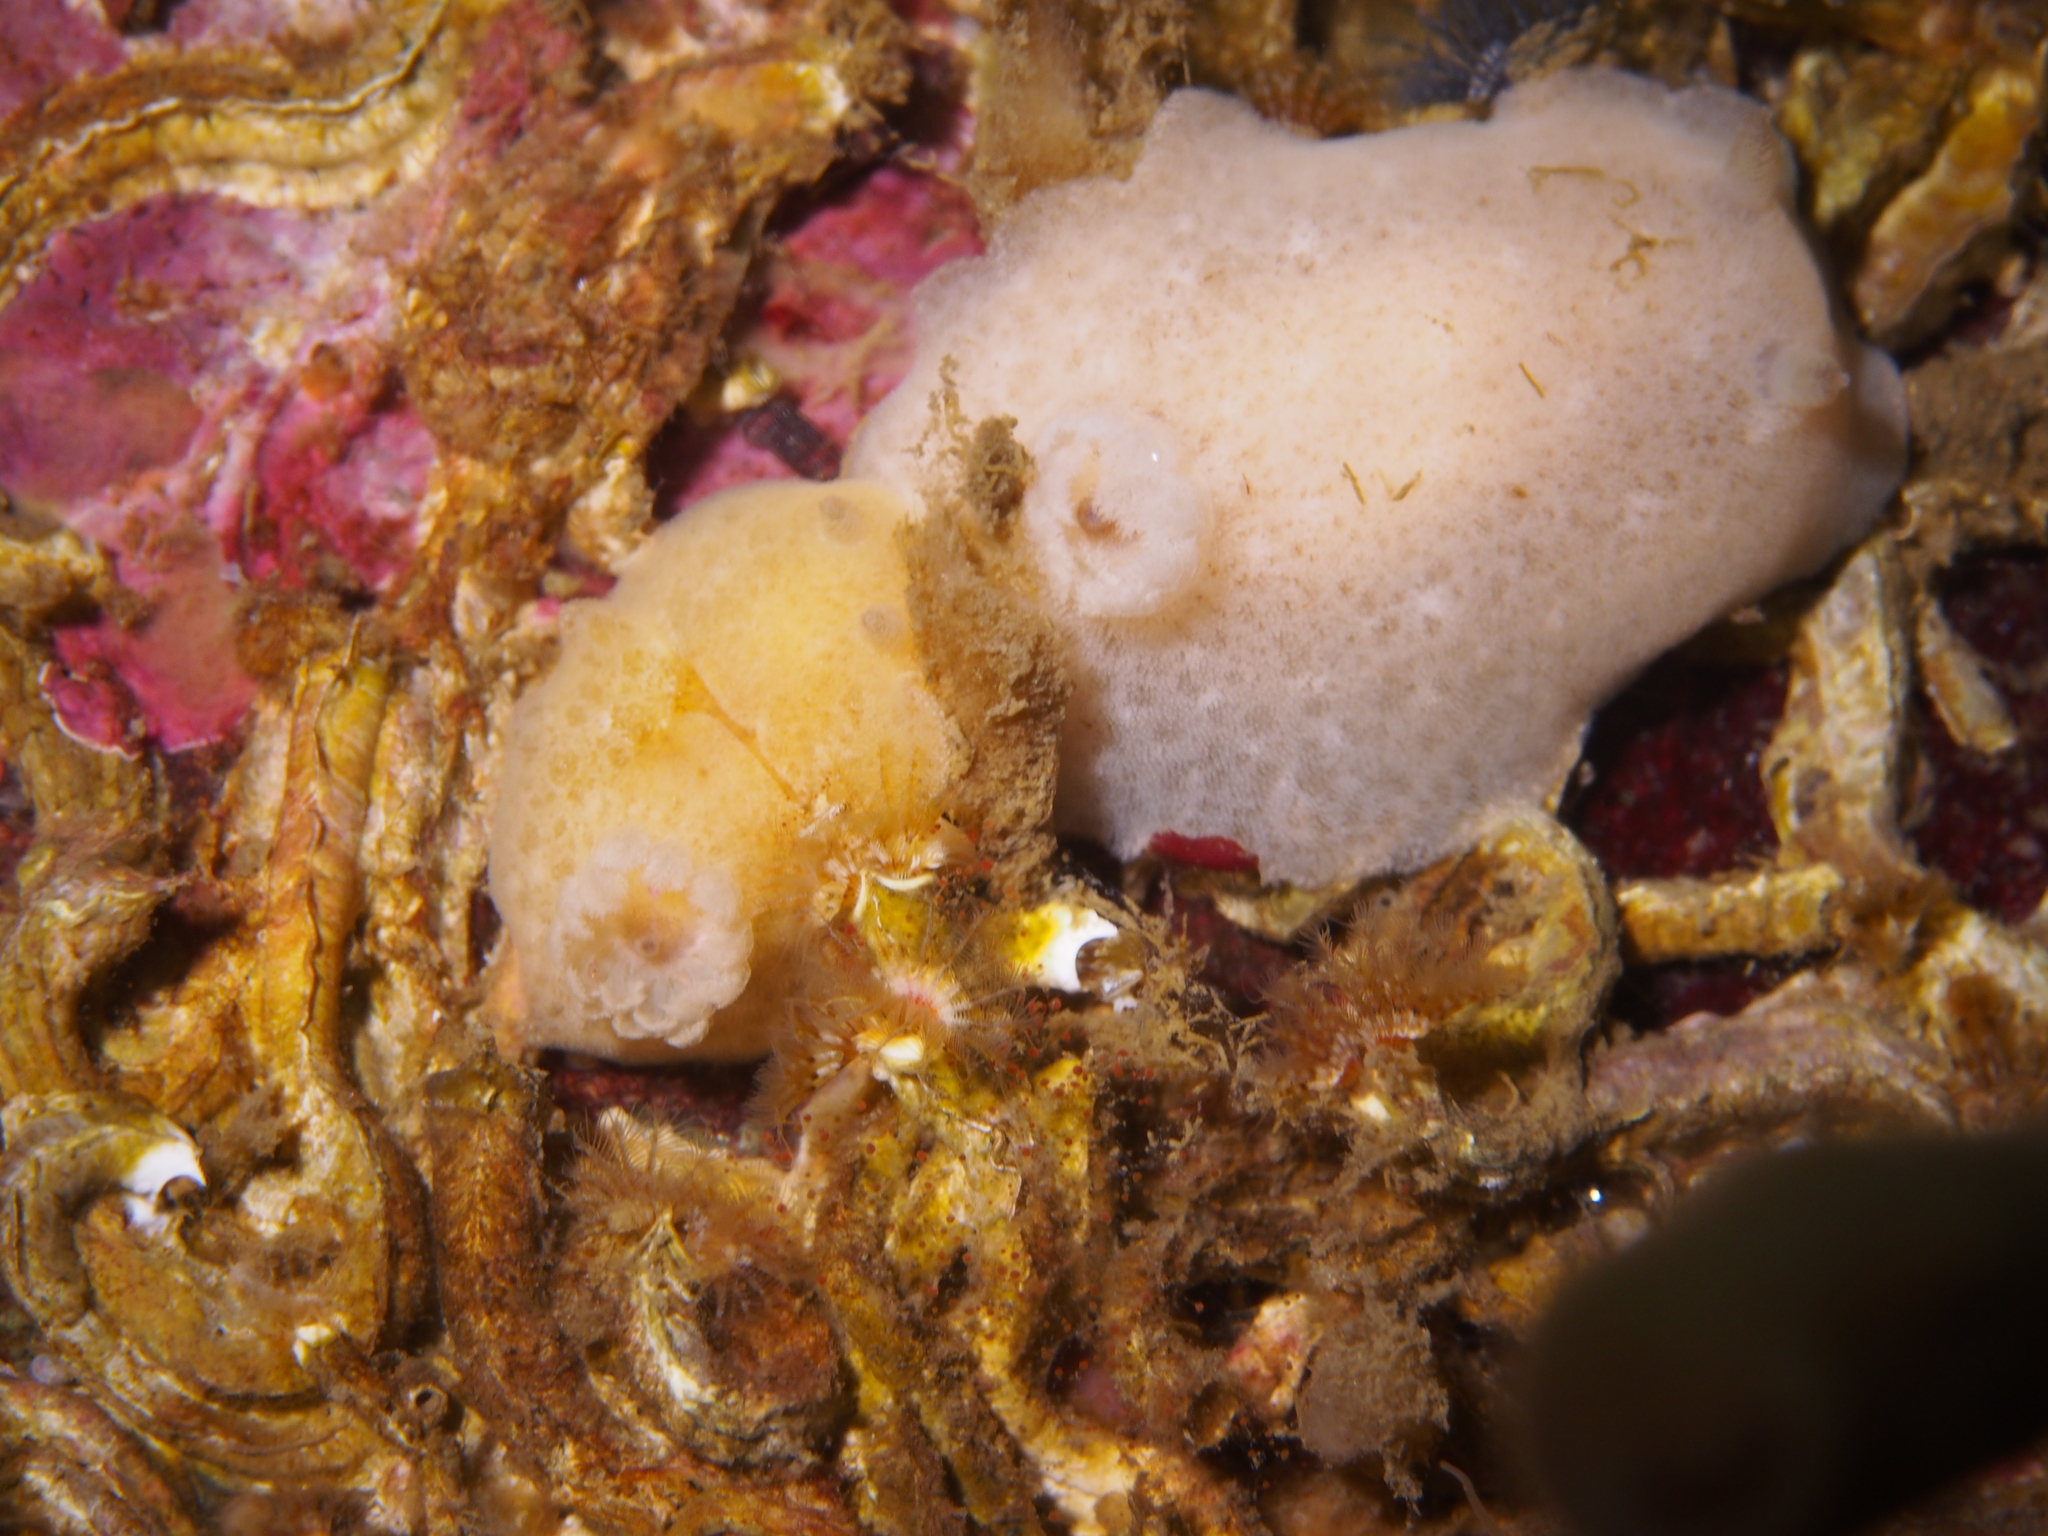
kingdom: Animalia
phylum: Mollusca
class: Gastropoda
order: Nudibranchia
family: Discodorididae
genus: Jorunna
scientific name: Jorunna tomentosa
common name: Grey sea slug
